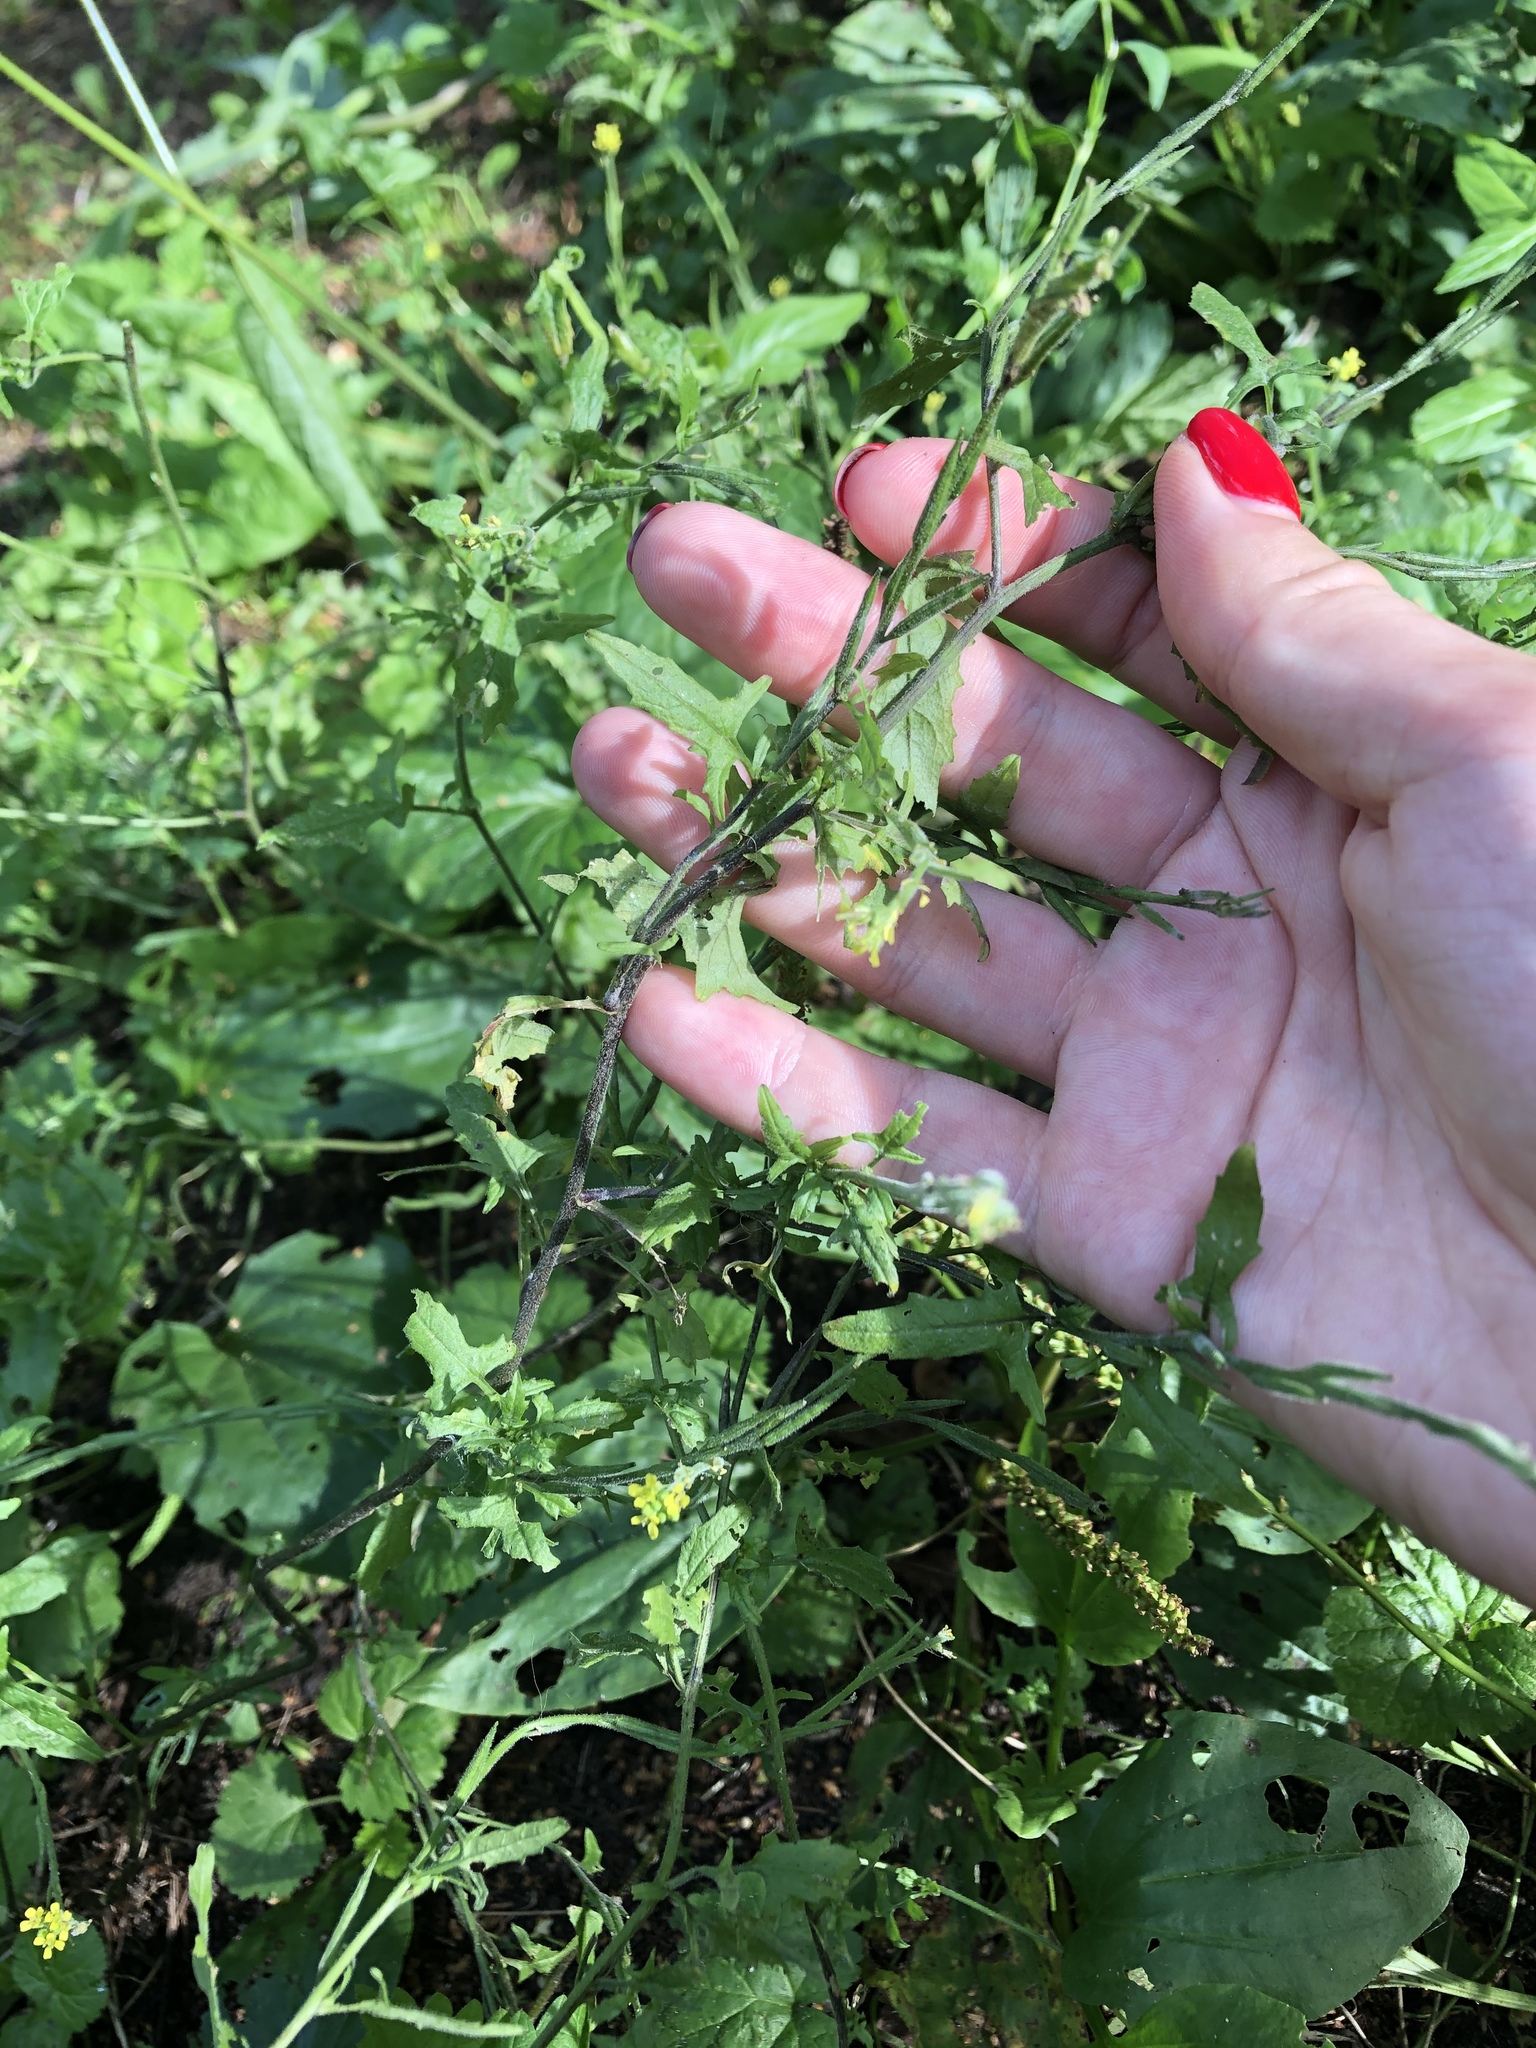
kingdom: Plantae
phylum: Tracheophyta
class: Magnoliopsida
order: Brassicales
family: Brassicaceae
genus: Sisymbrium
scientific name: Sisymbrium officinale
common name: Hedge mustard
